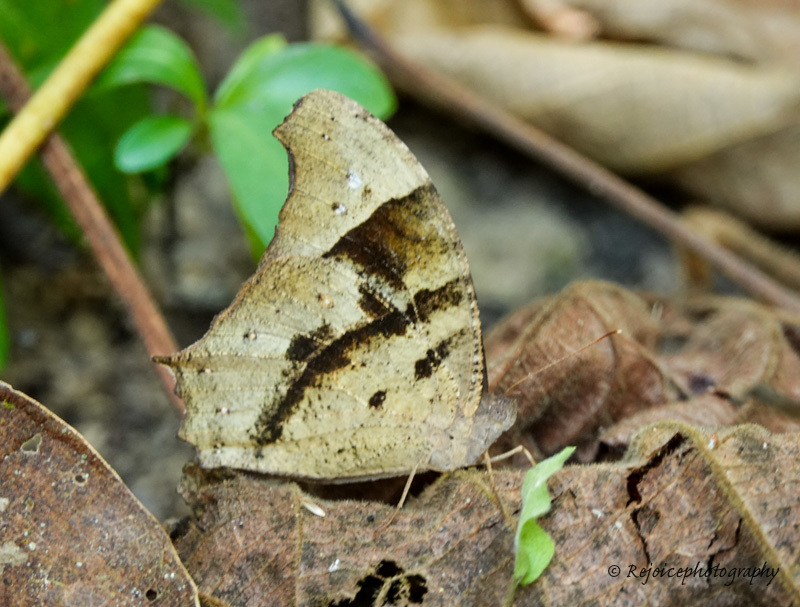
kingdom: Animalia
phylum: Arthropoda
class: Insecta
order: Lepidoptera
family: Nymphalidae
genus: Melanitis
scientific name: Melanitis leda
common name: Twilight brown
